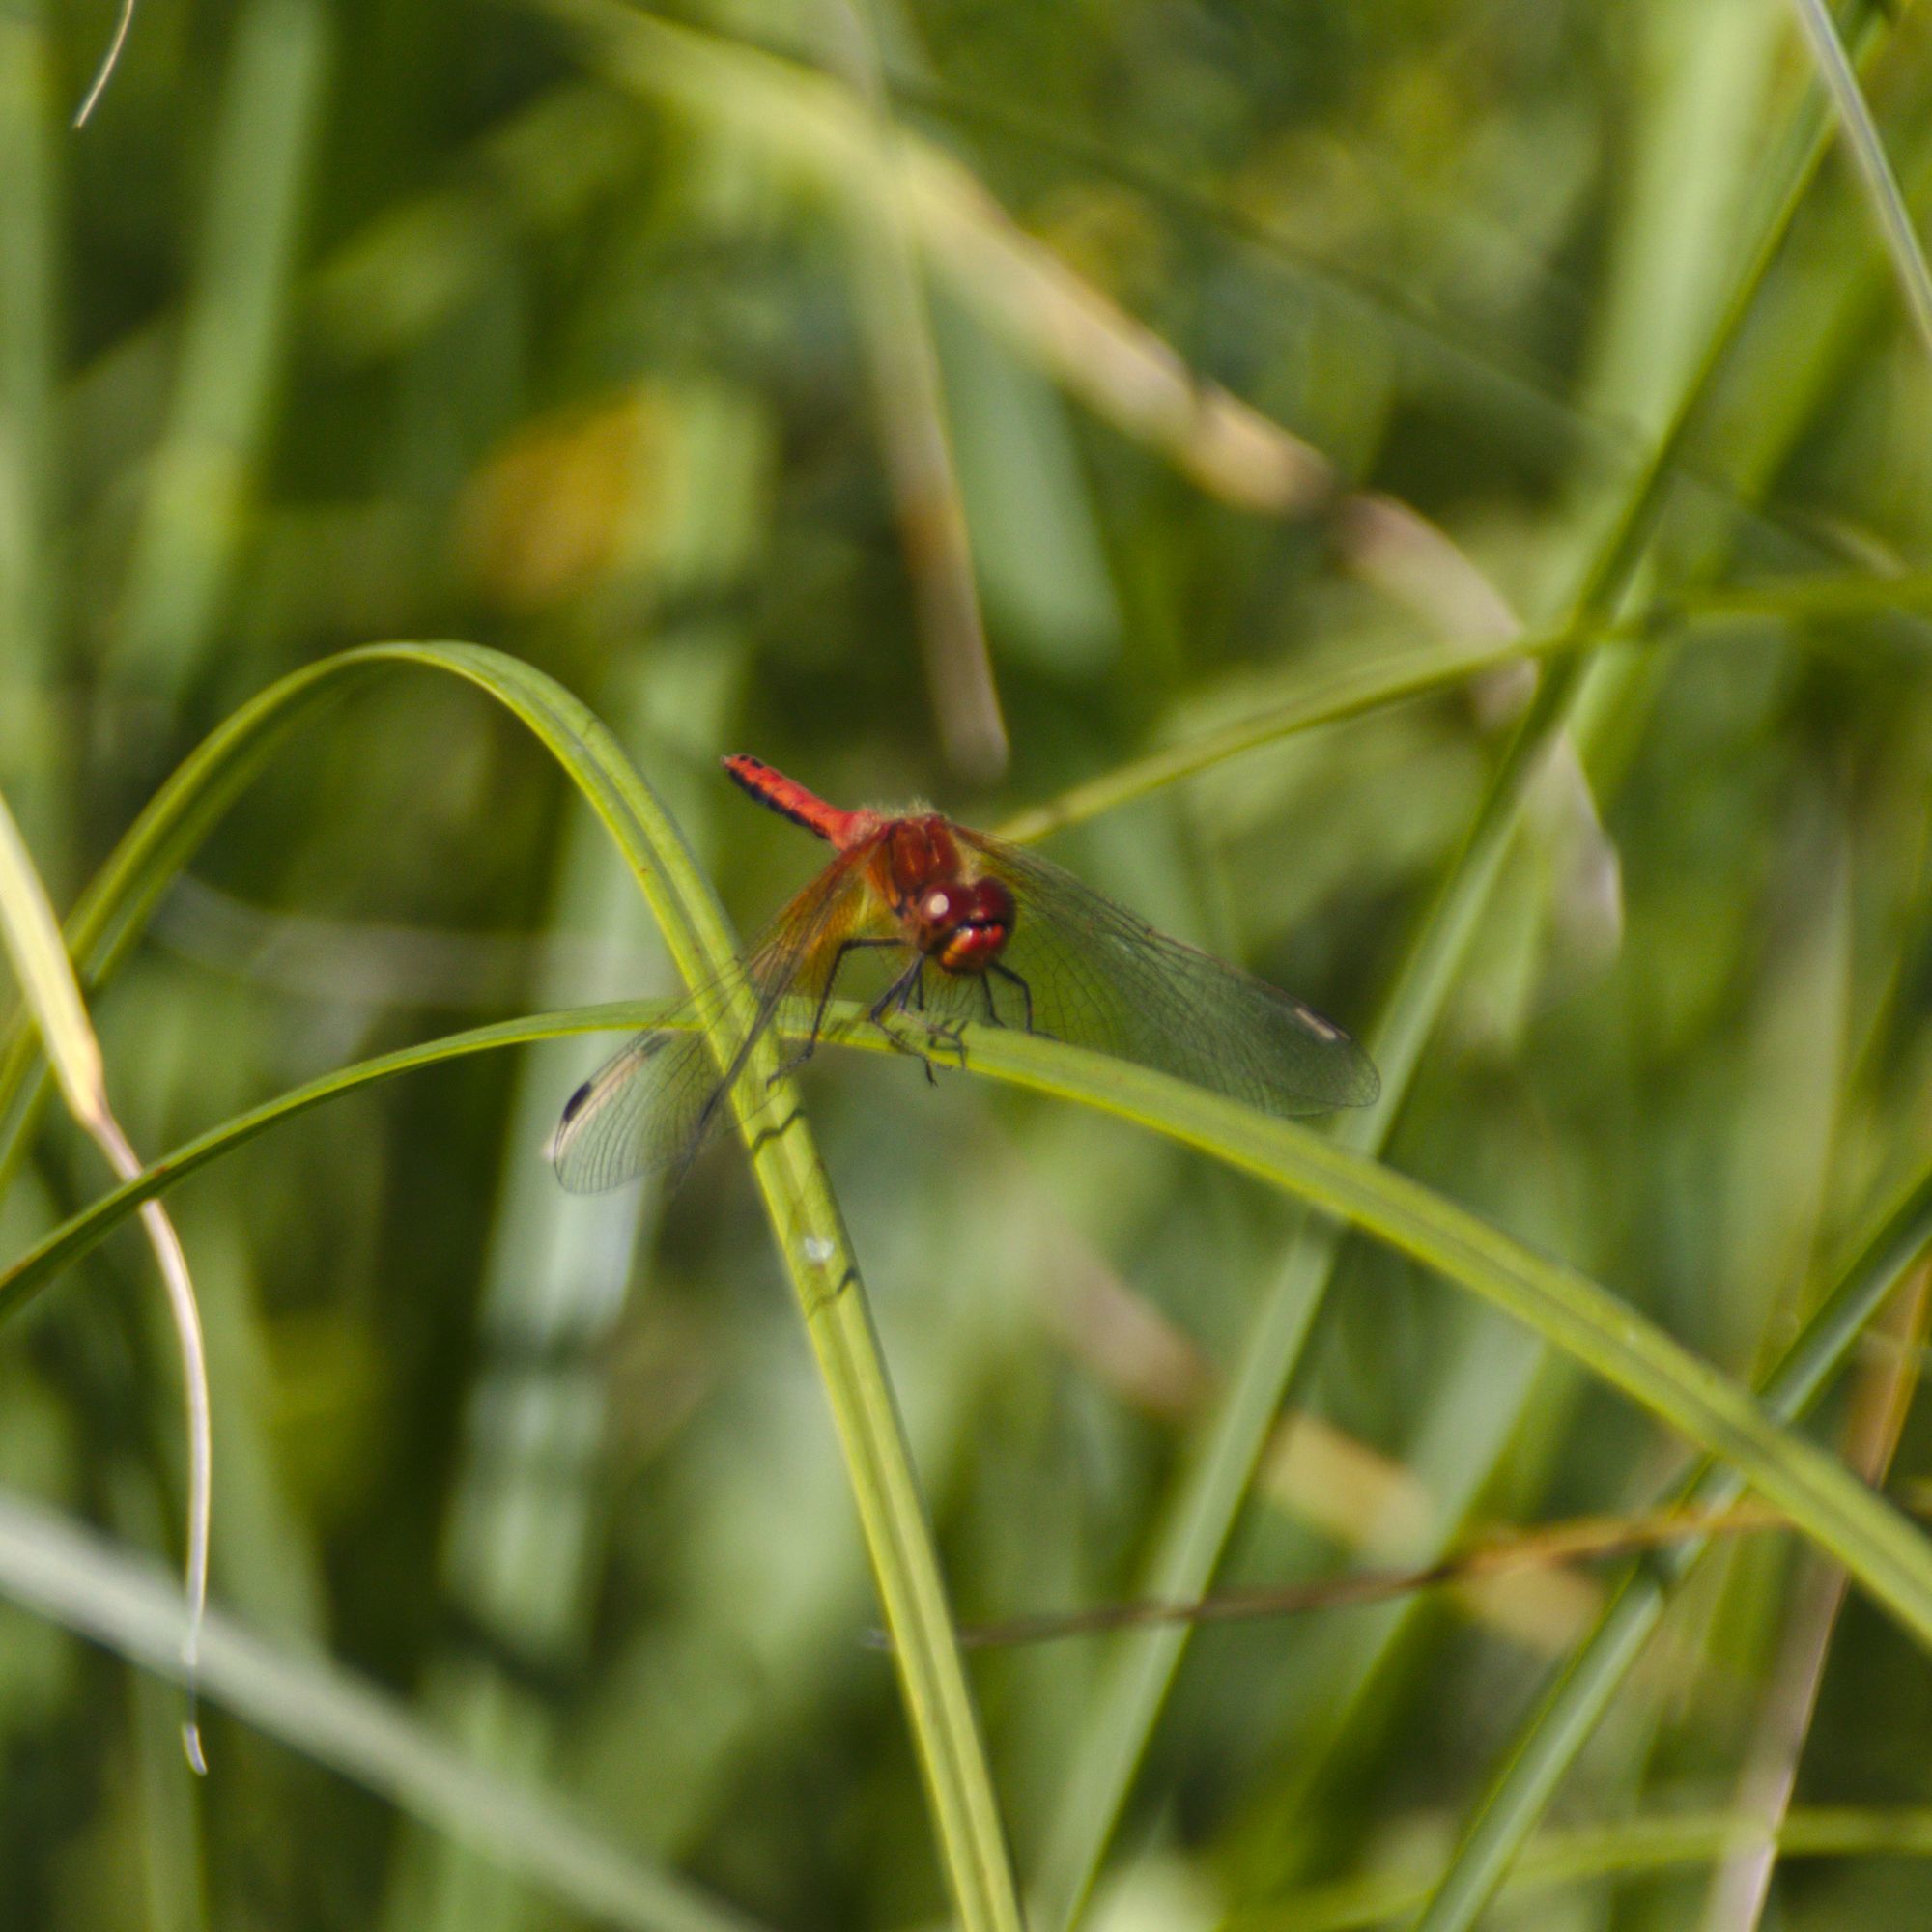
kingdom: Animalia
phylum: Arthropoda
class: Insecta
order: Odonata
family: Libellulidae
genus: Sympetrum
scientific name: Sympetrum flaveolum
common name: Yellow-winged darter
